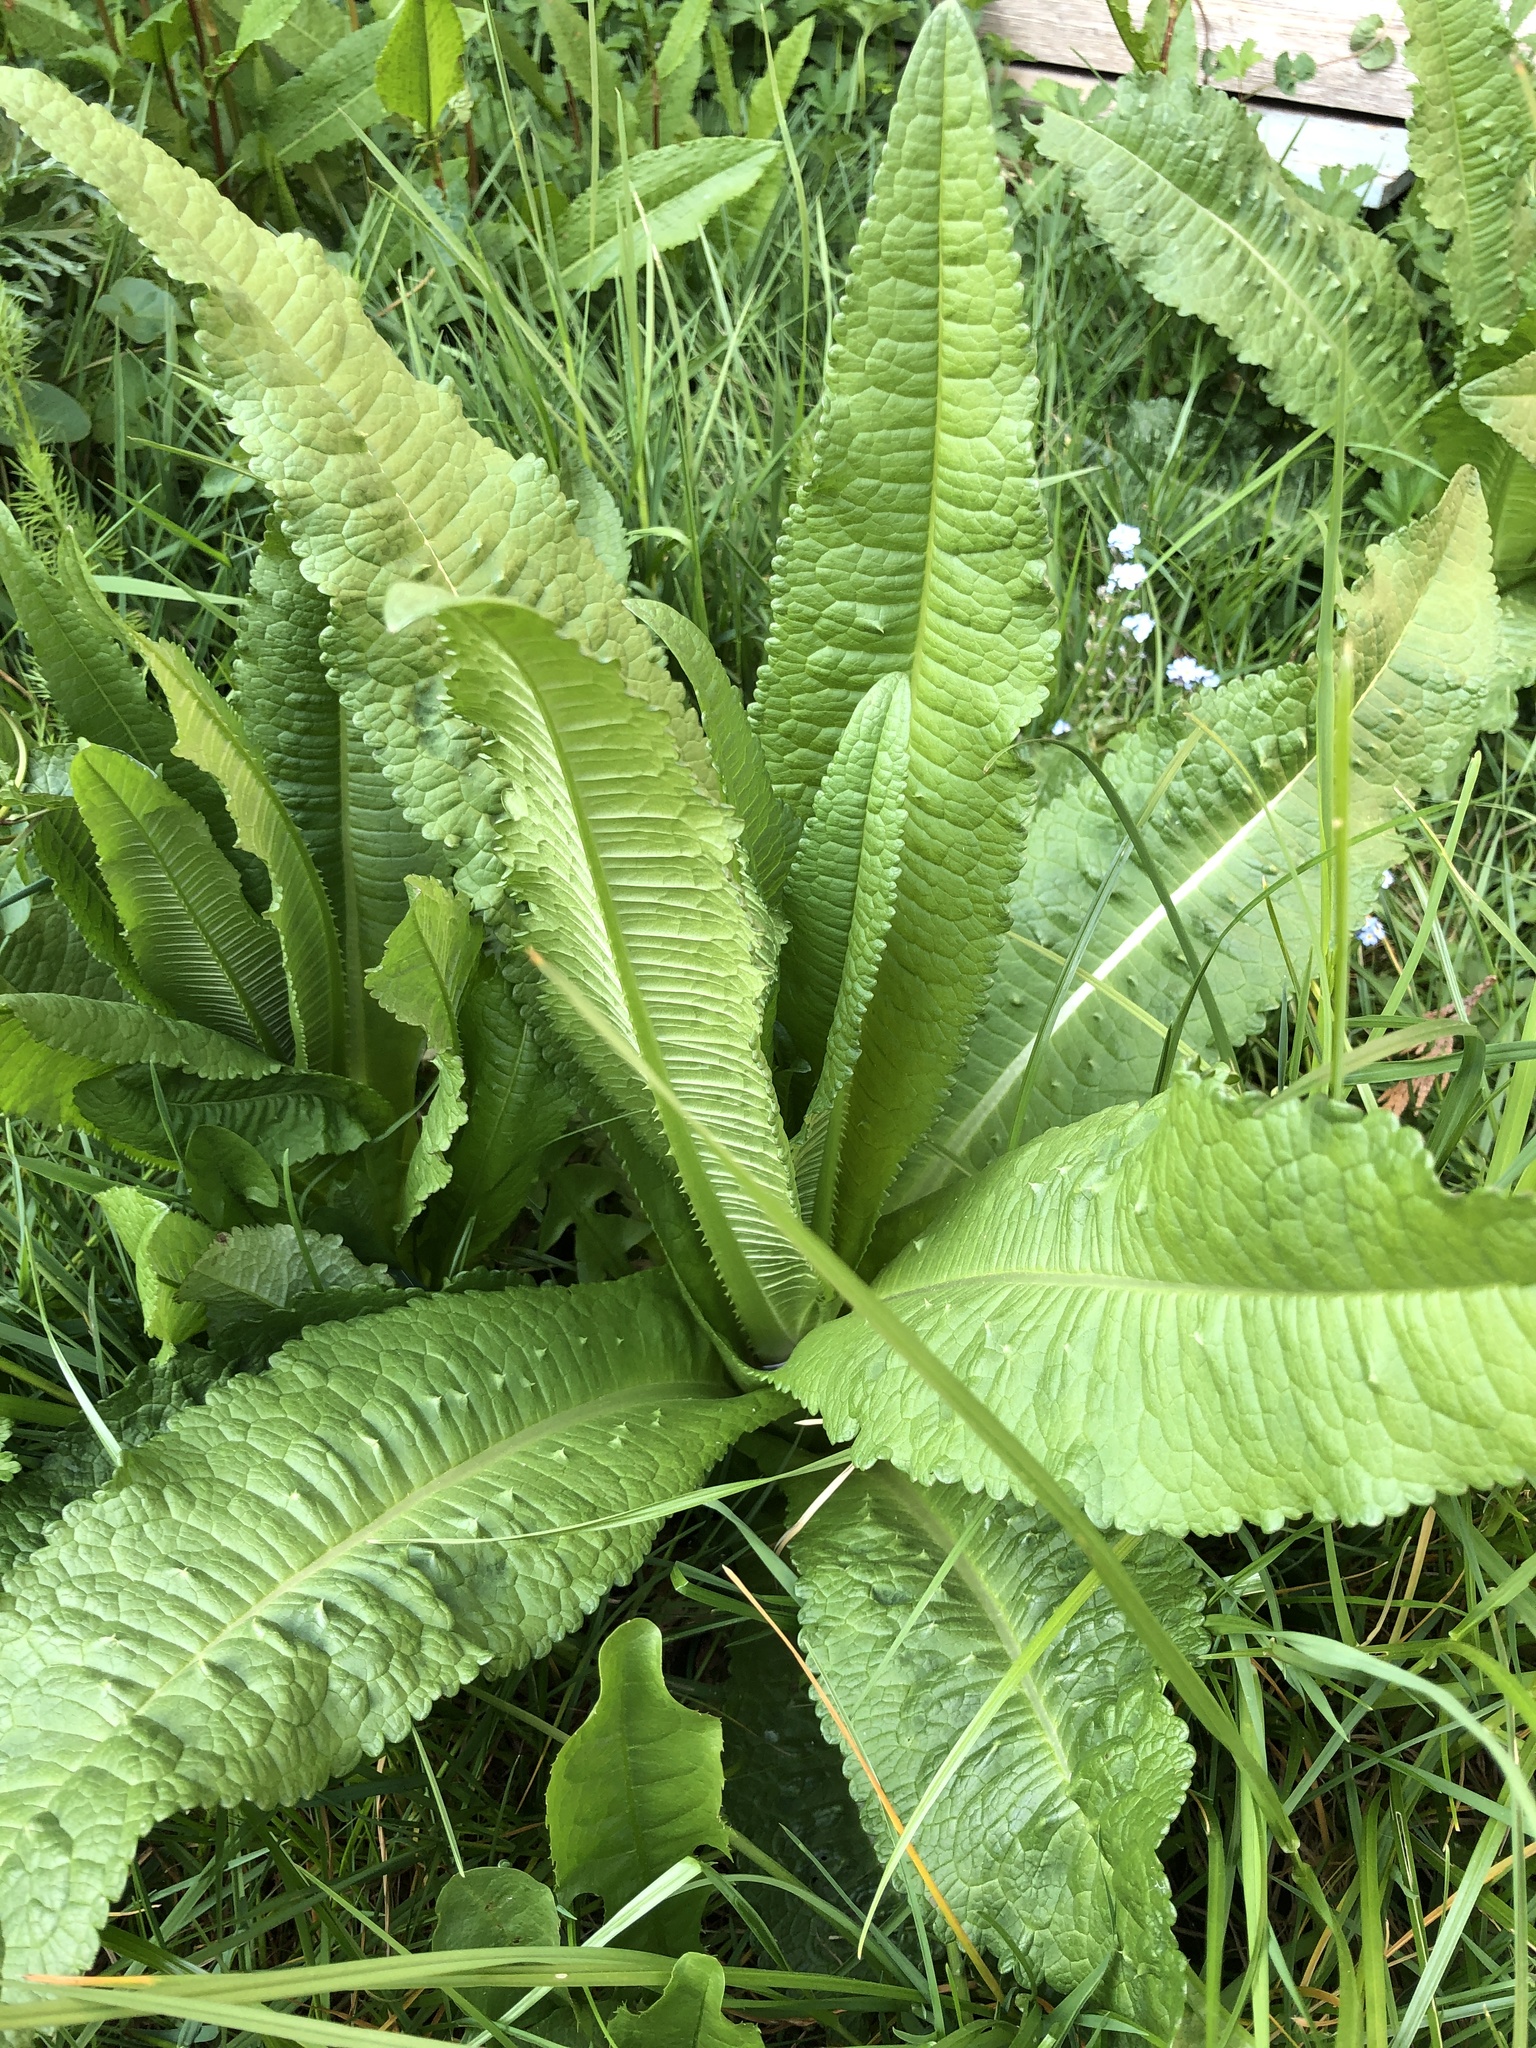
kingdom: Plantae
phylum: Tracheophyta
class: Magnoliopsida
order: Dipsacales
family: Caprifoliaceae
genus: Dipsacus
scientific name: Dipsacus fullonum
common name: Teasel
